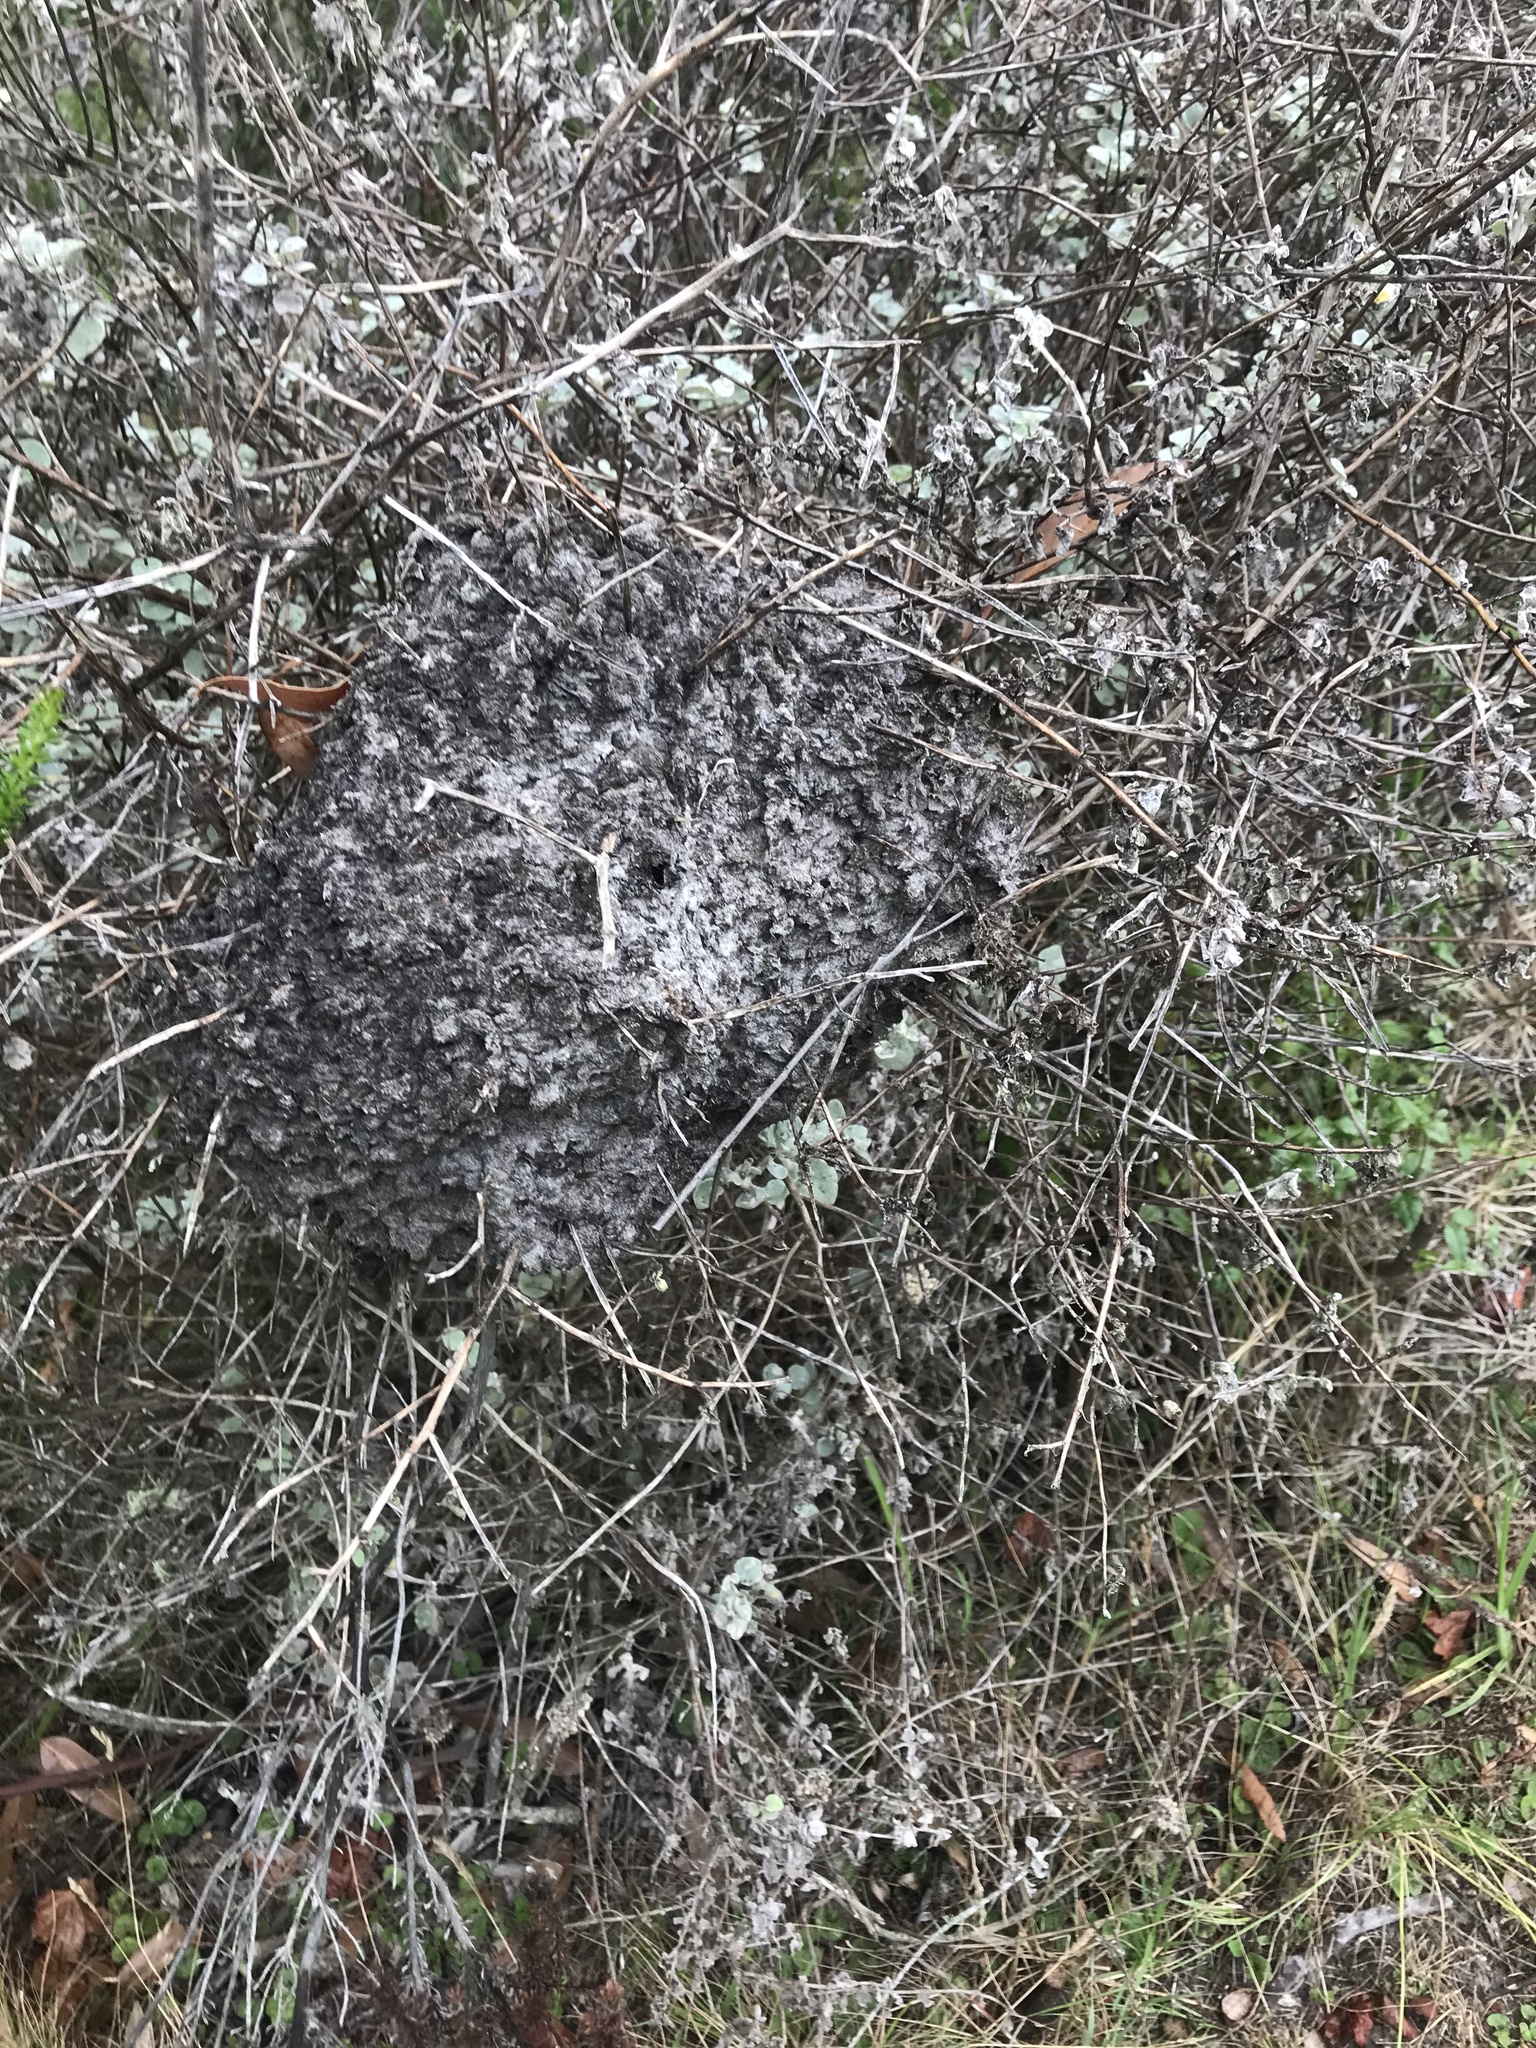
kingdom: Animalia
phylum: Arthropoda
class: Insecta
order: Hymenoptera
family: Formicidae
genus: Crematogaster
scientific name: Crematogaster peringueyi
